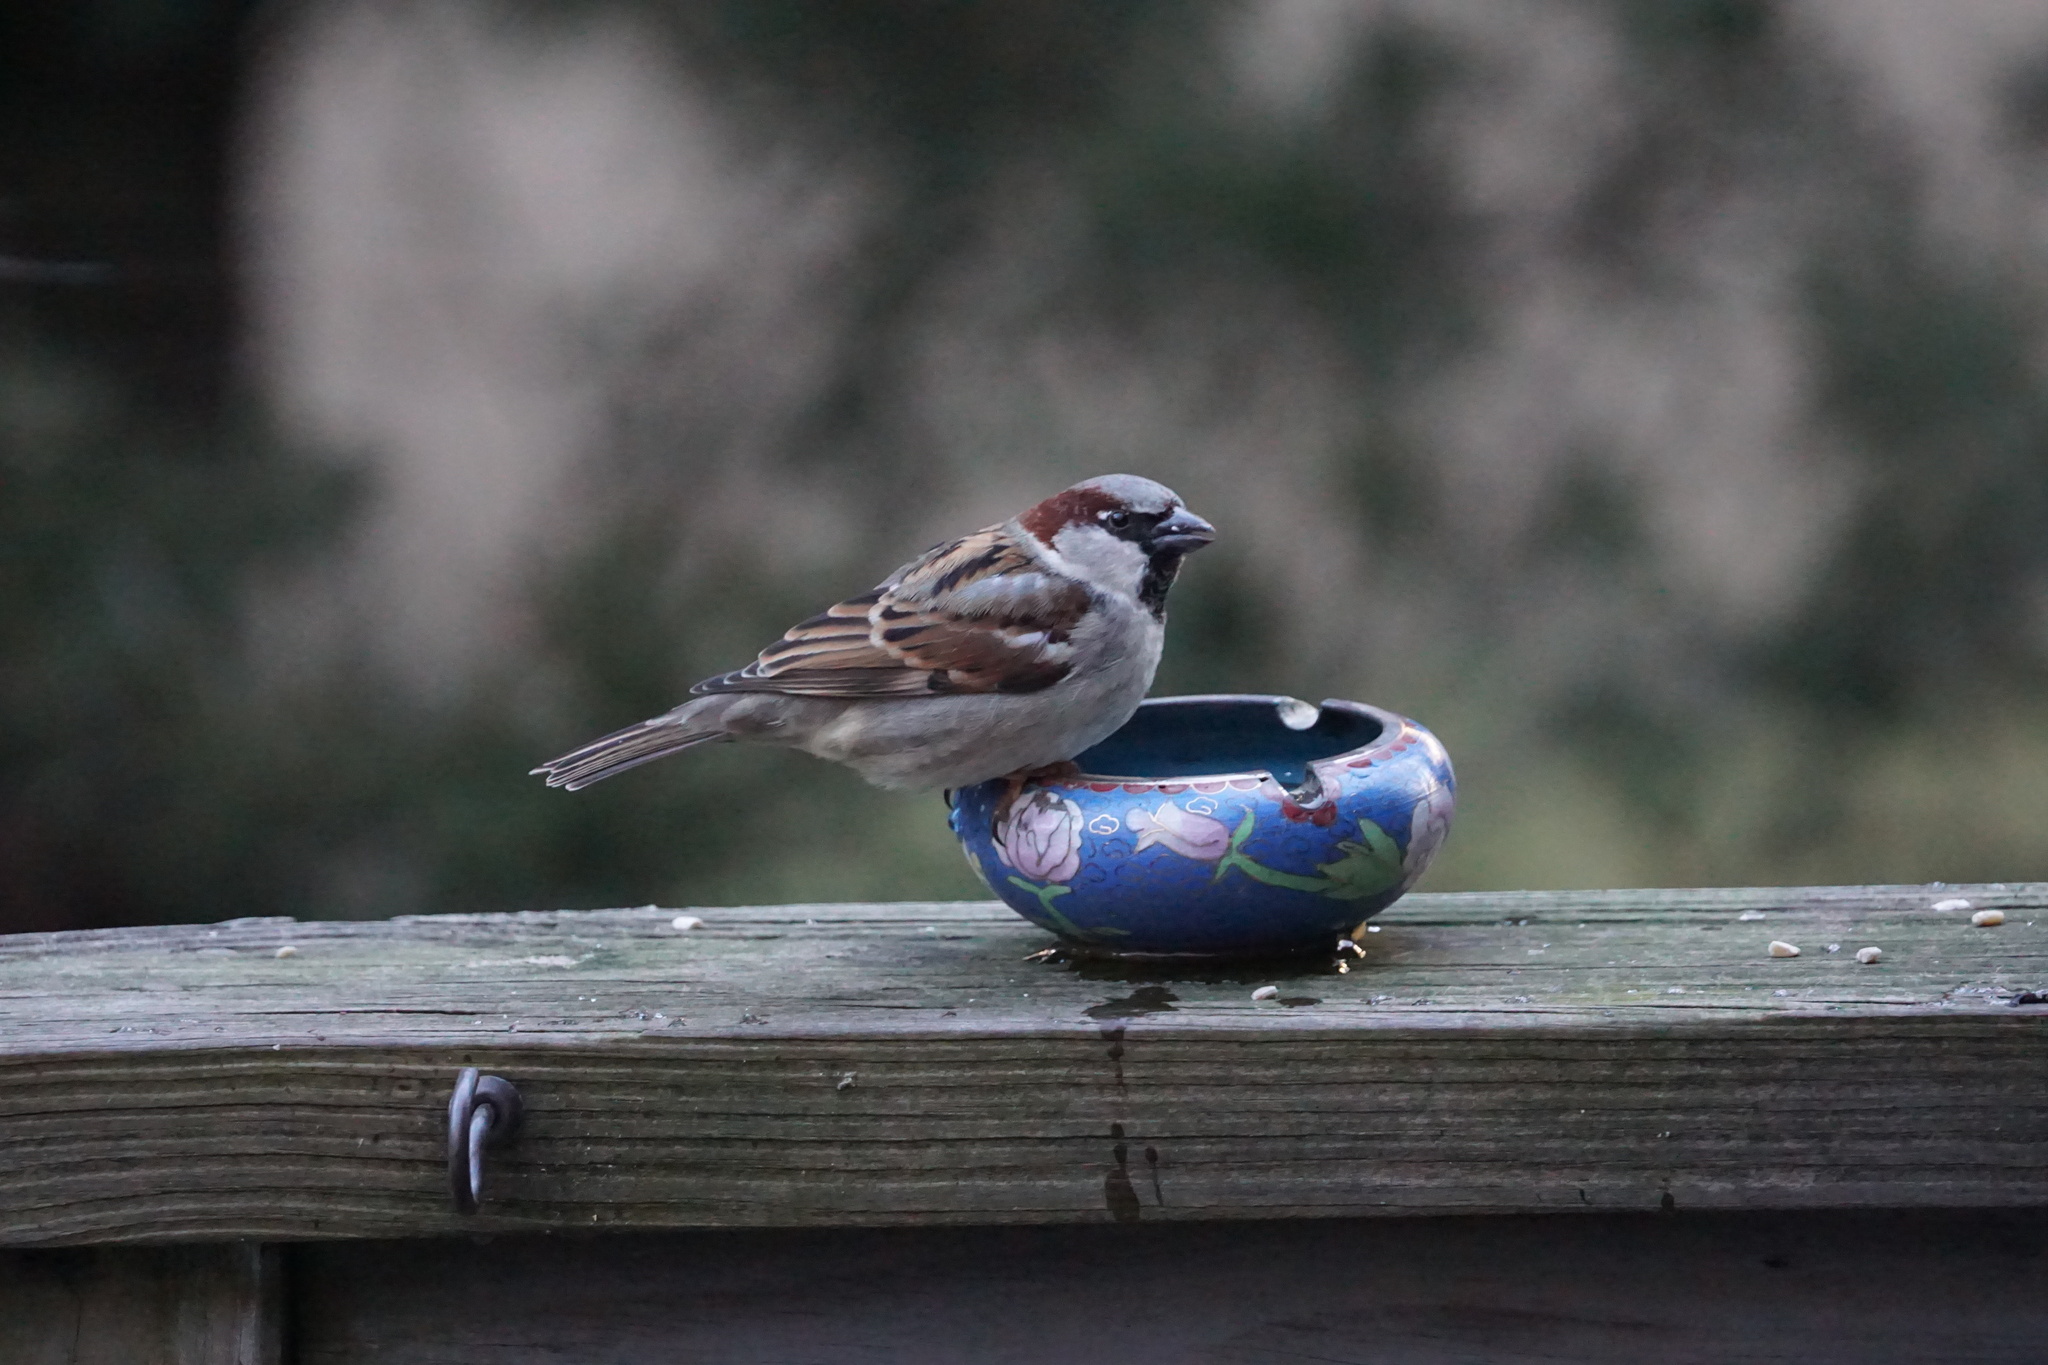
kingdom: Animalia
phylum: Chordata
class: Aves
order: Passeriformes
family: Passeridae
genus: Passer
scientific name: Passer domesticus
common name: House sparrow
